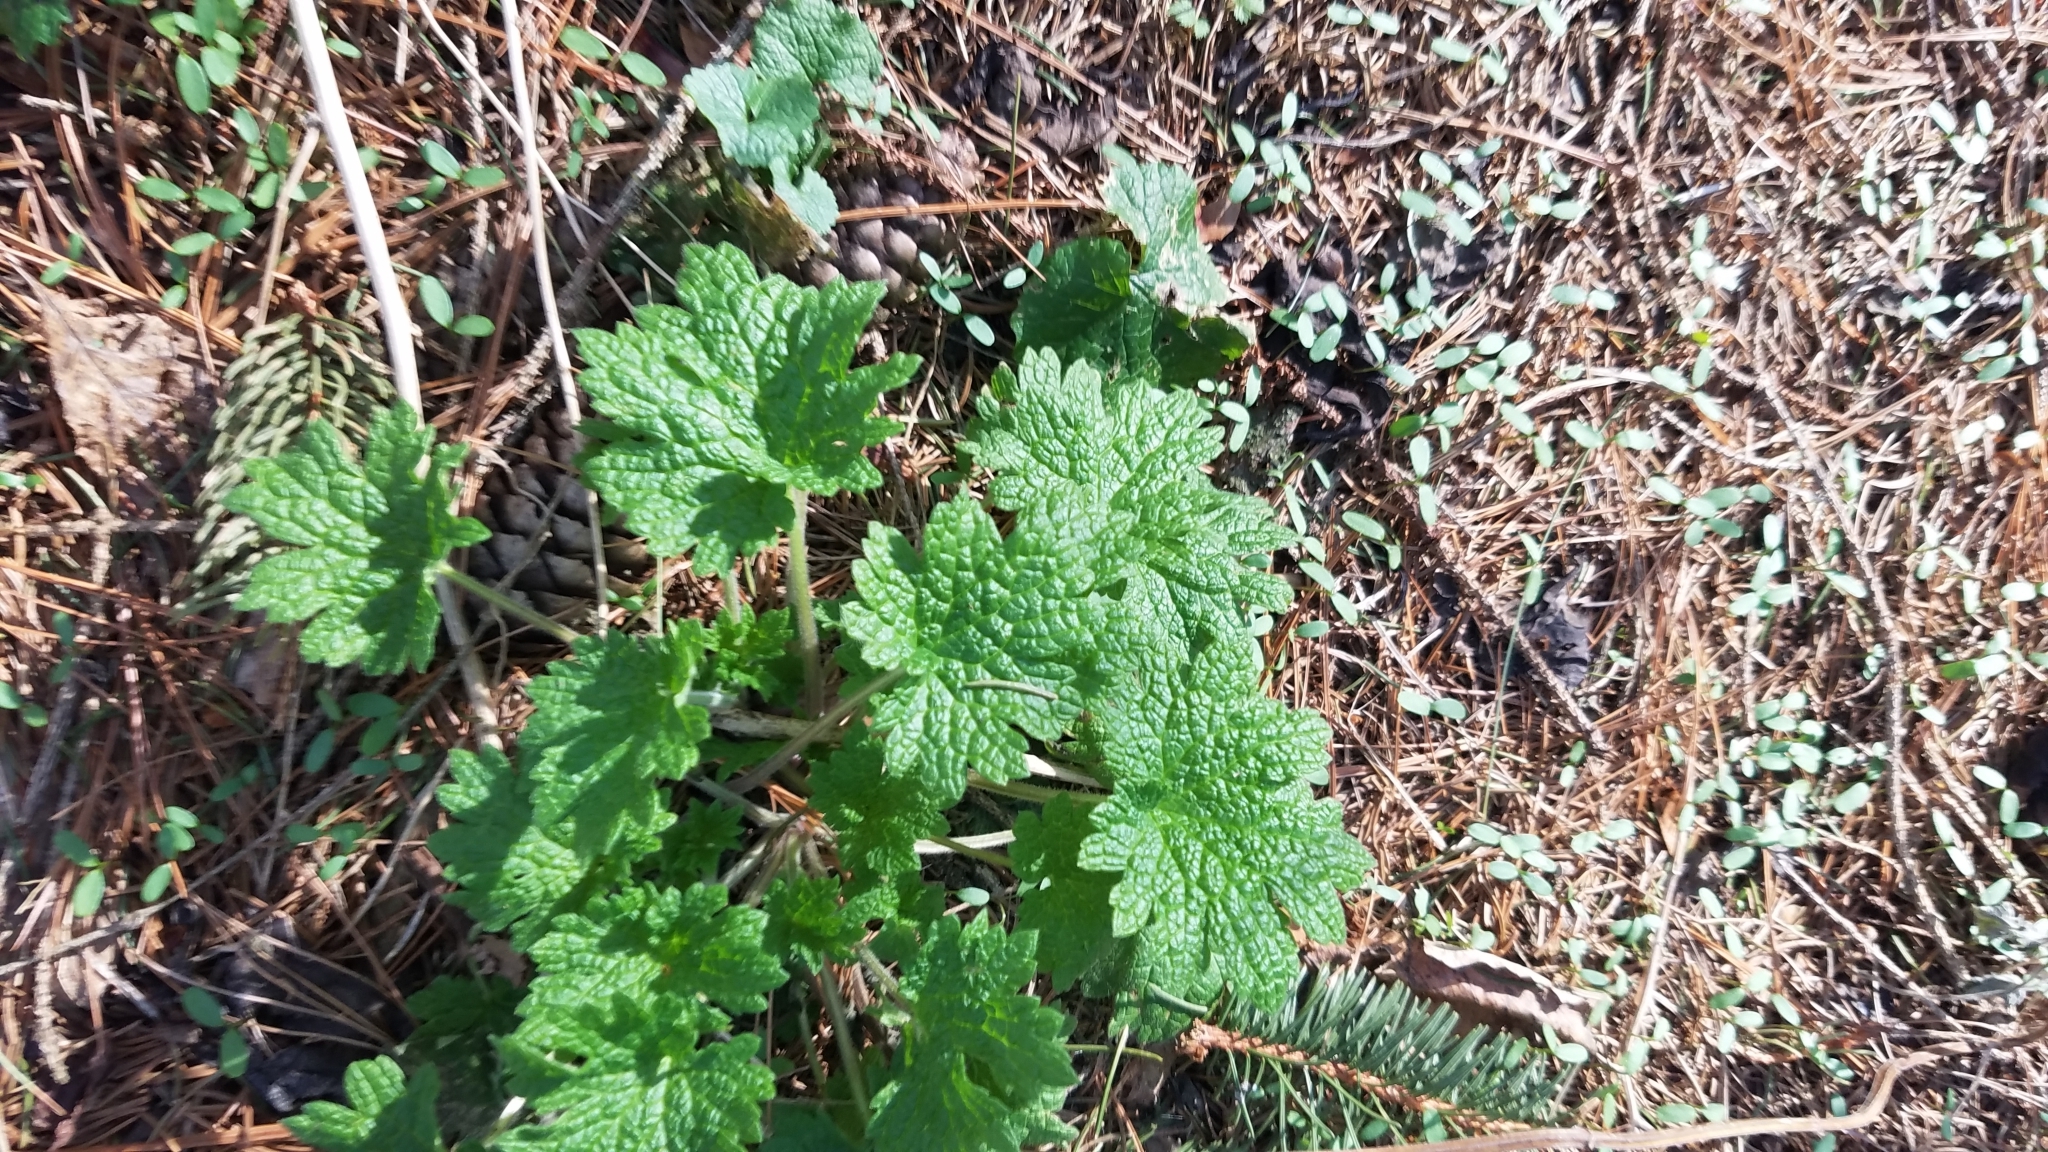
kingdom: Plantae
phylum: Tracheophyta
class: Magnoliopsida
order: Lamiales
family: Lamiaceae
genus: Leonurus
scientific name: Leonurus cardiaca
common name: Motherwort
